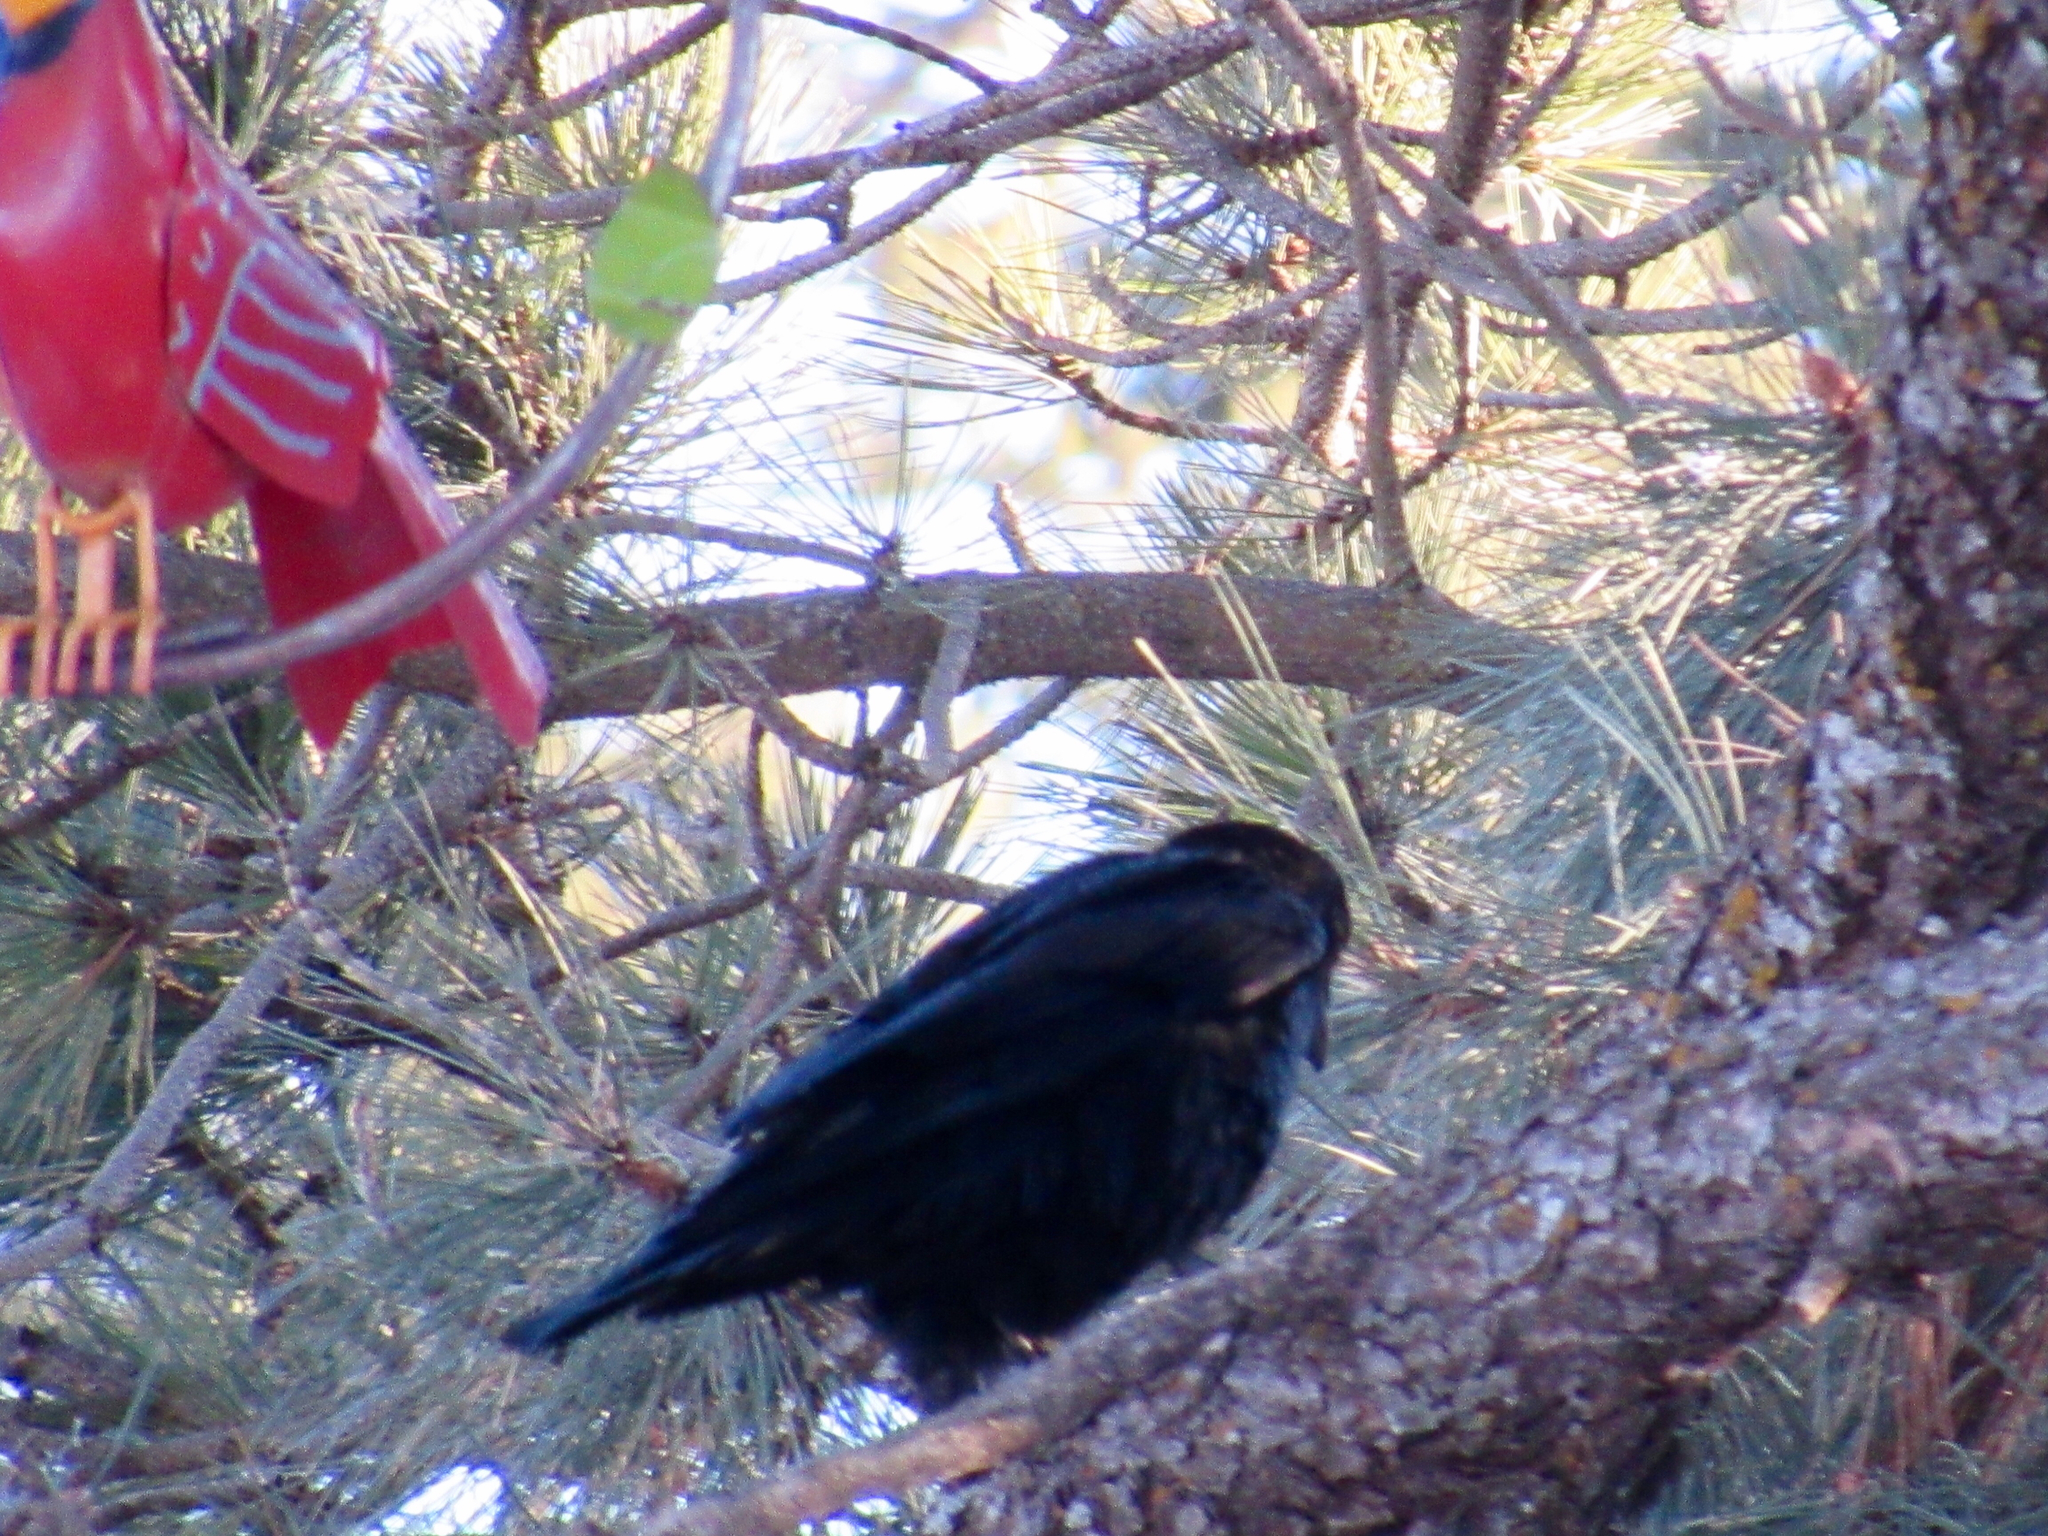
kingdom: Animalia
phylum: Chordata
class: Aves
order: Passeriformes
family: Corvidae
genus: Corvus
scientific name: Corvus corax
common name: Common raven
